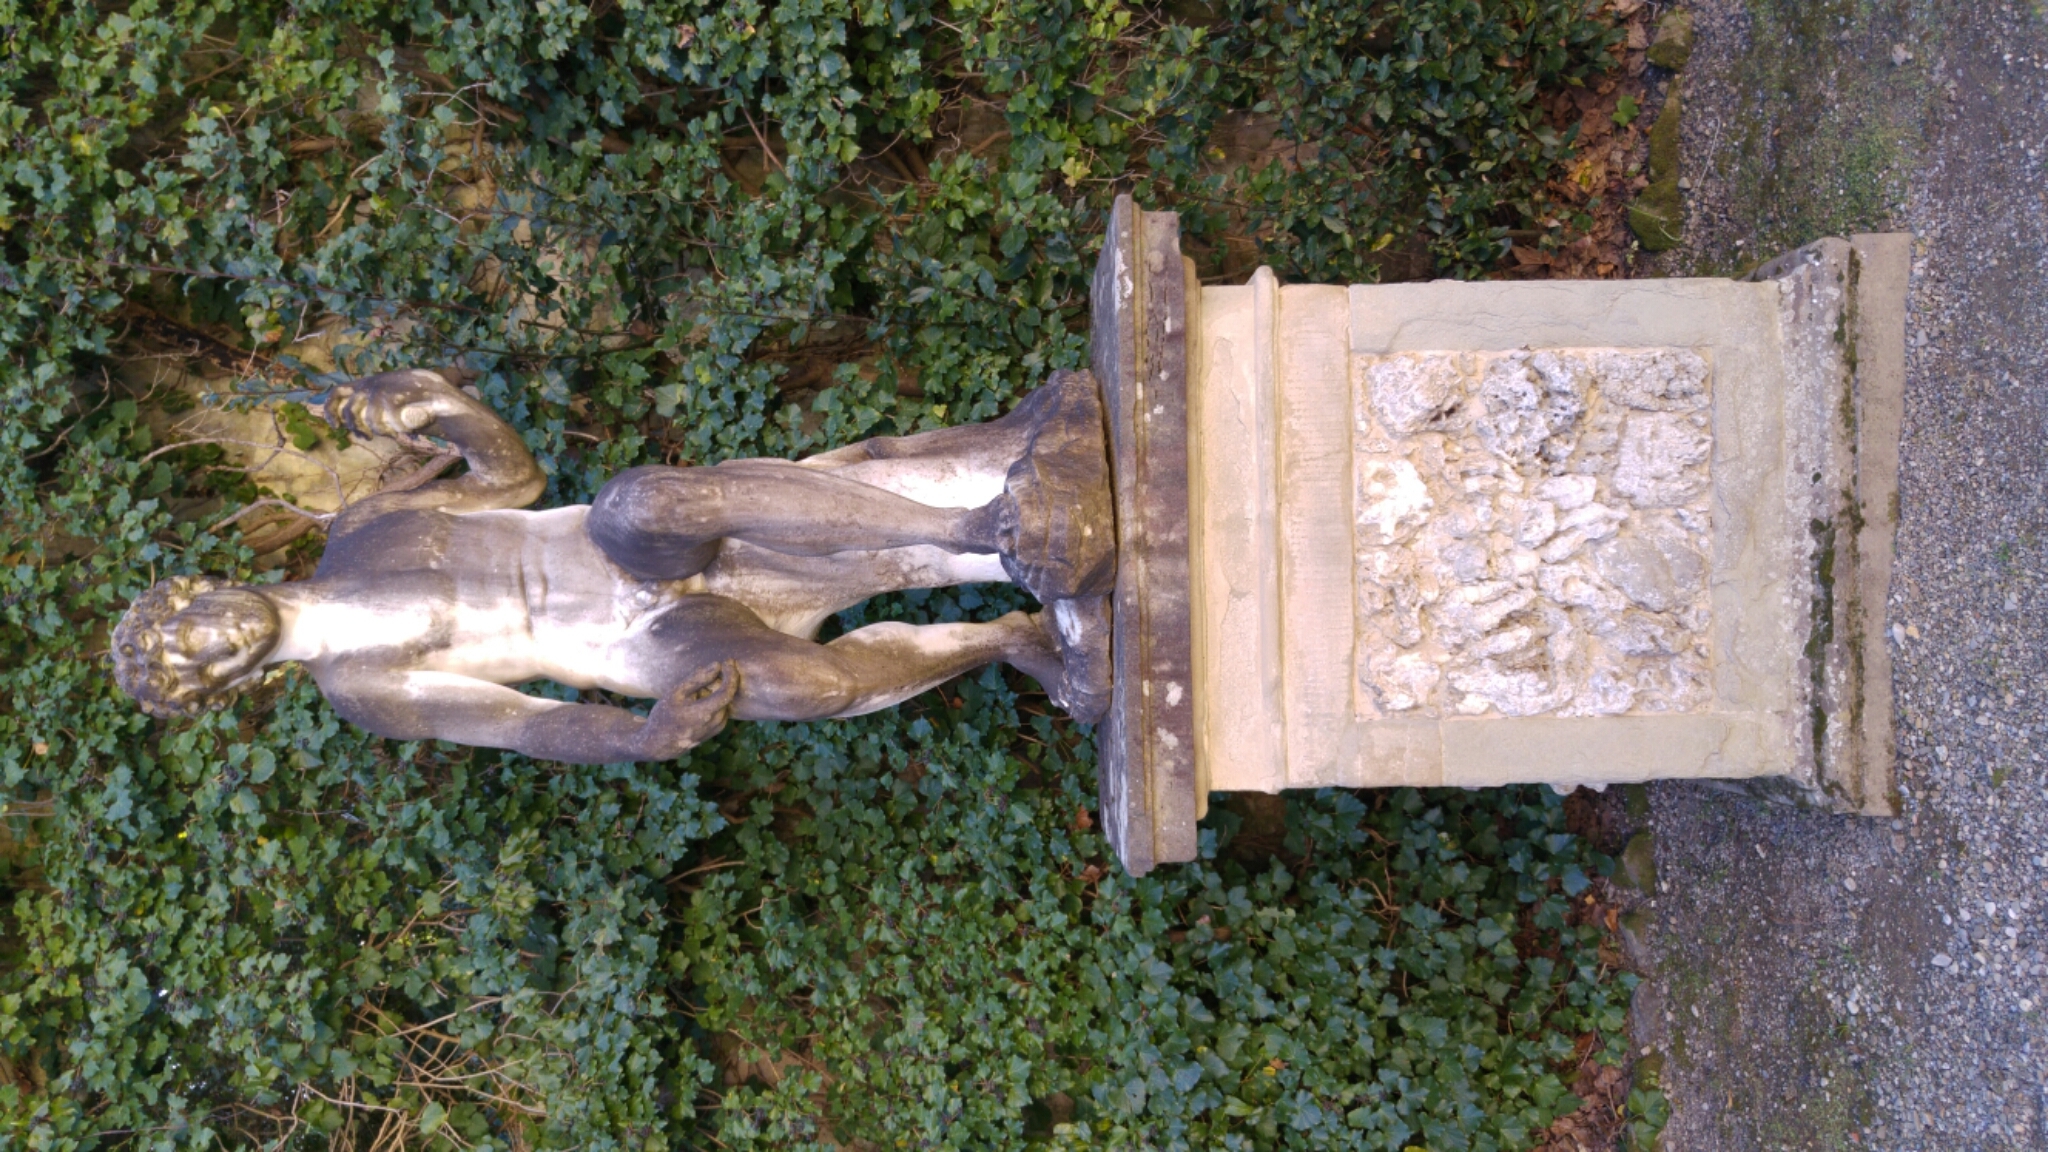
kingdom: Plantae
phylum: Tracheophyta
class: Magnoliopsida
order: Apiales
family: Araliaceae
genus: Hedera
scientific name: Hedera helix
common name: Ivy
